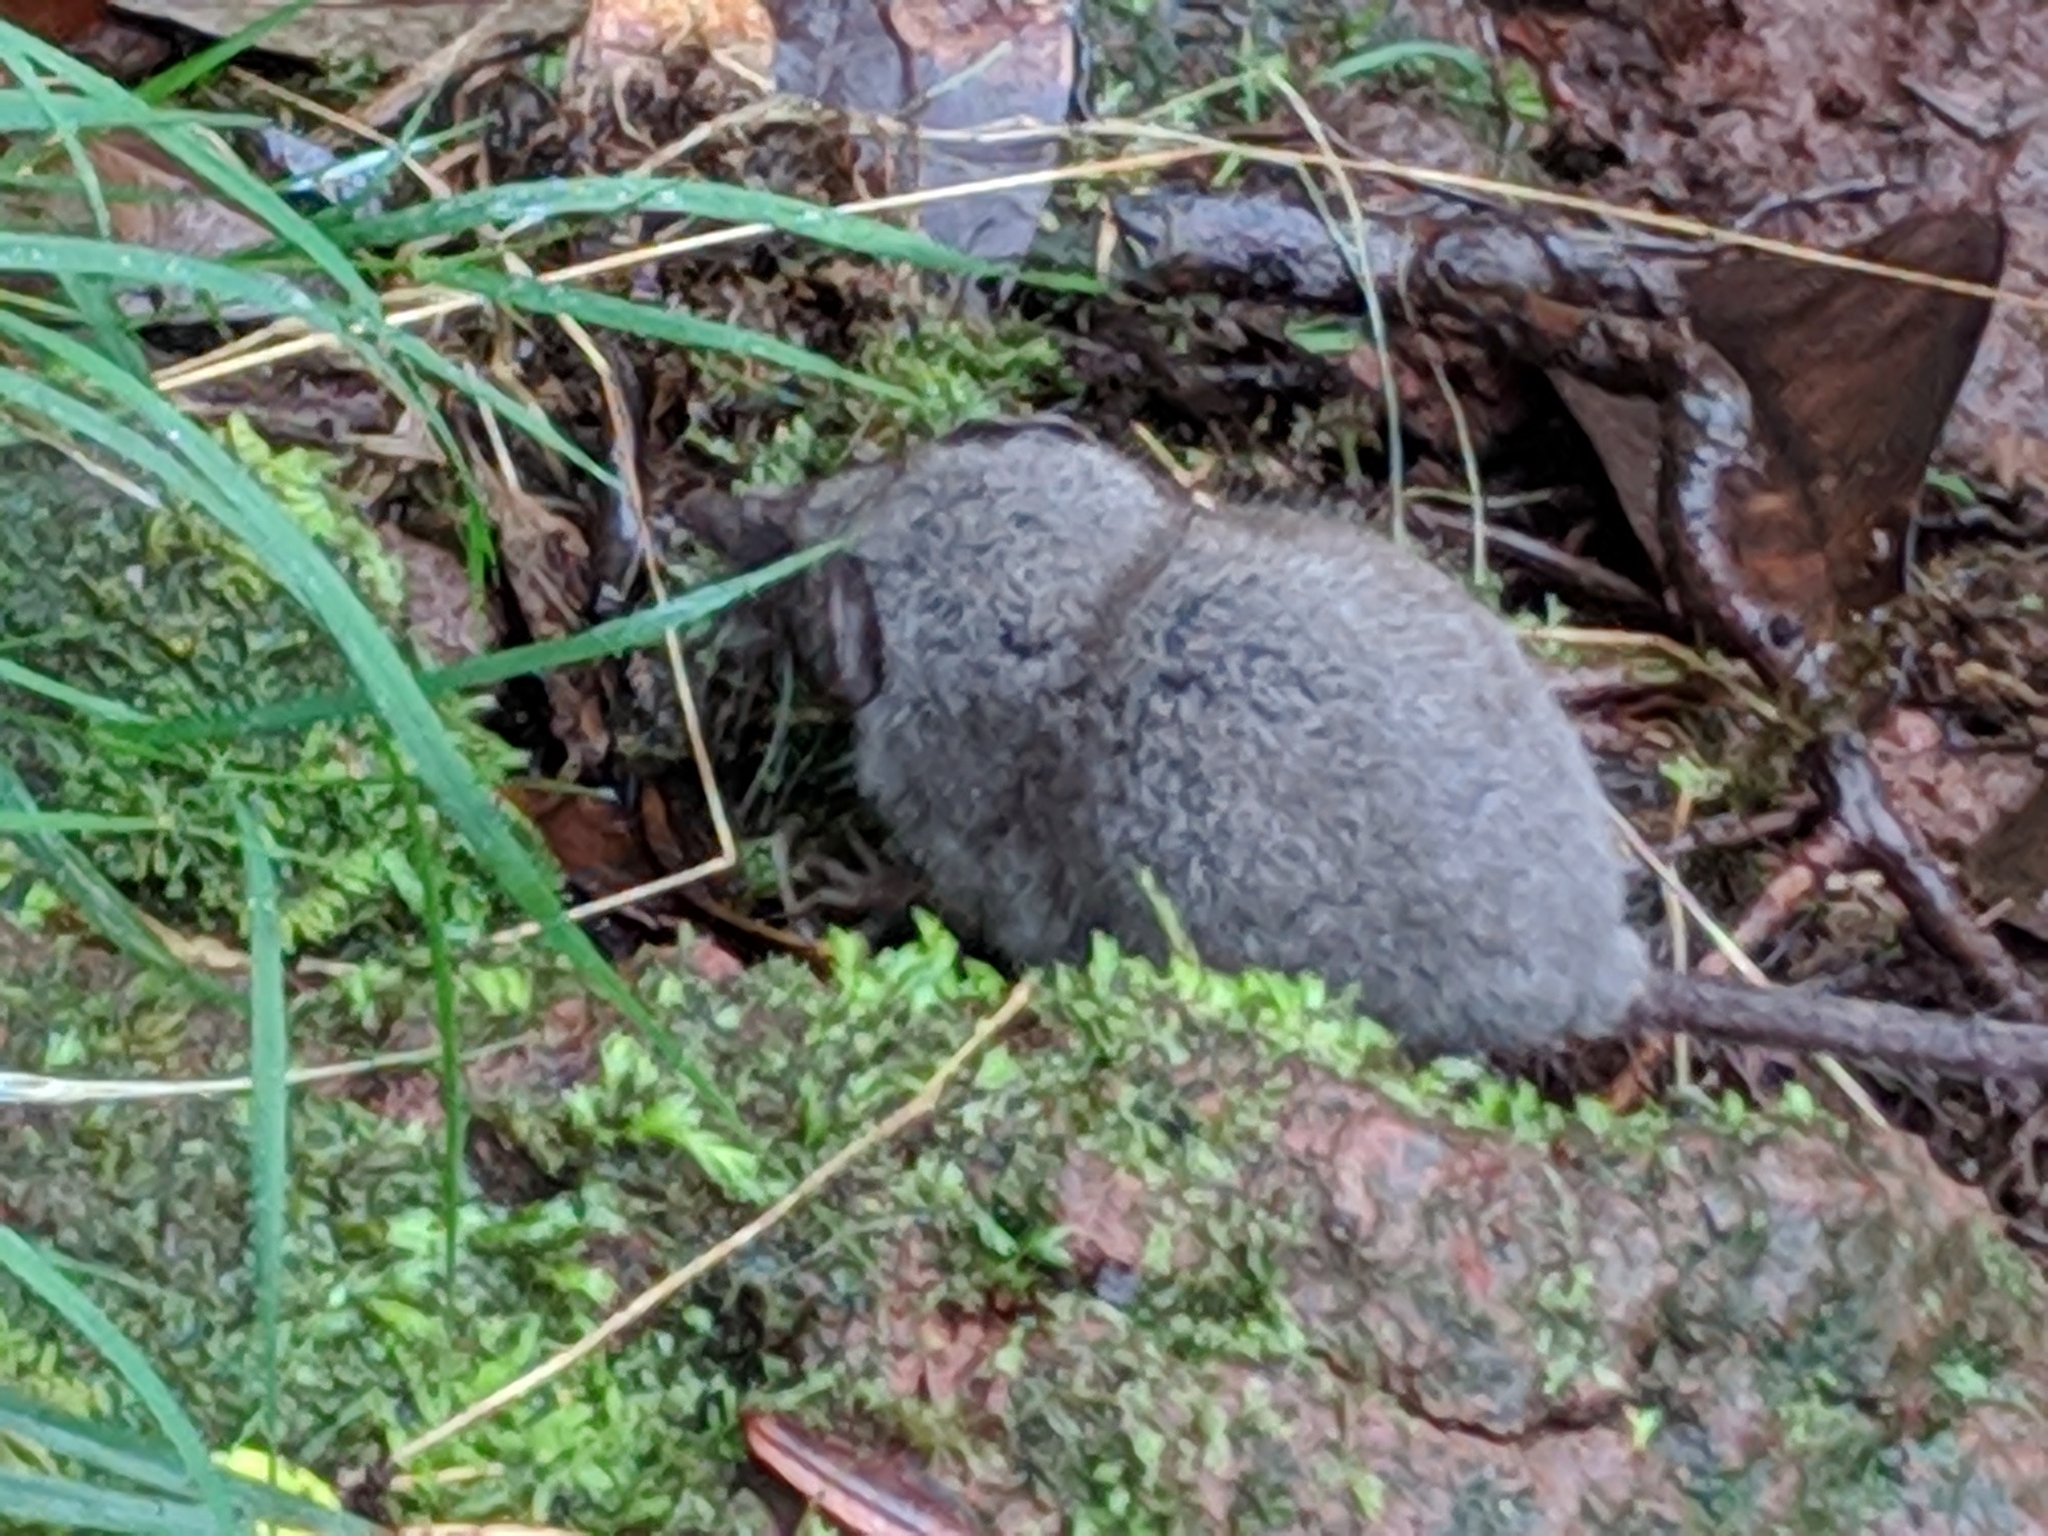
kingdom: Animalia
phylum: Chordata
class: Mammalia
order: Soricomorpha
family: Soricidae
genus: Suncus
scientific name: Suncus murinus
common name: Asian house shrew
